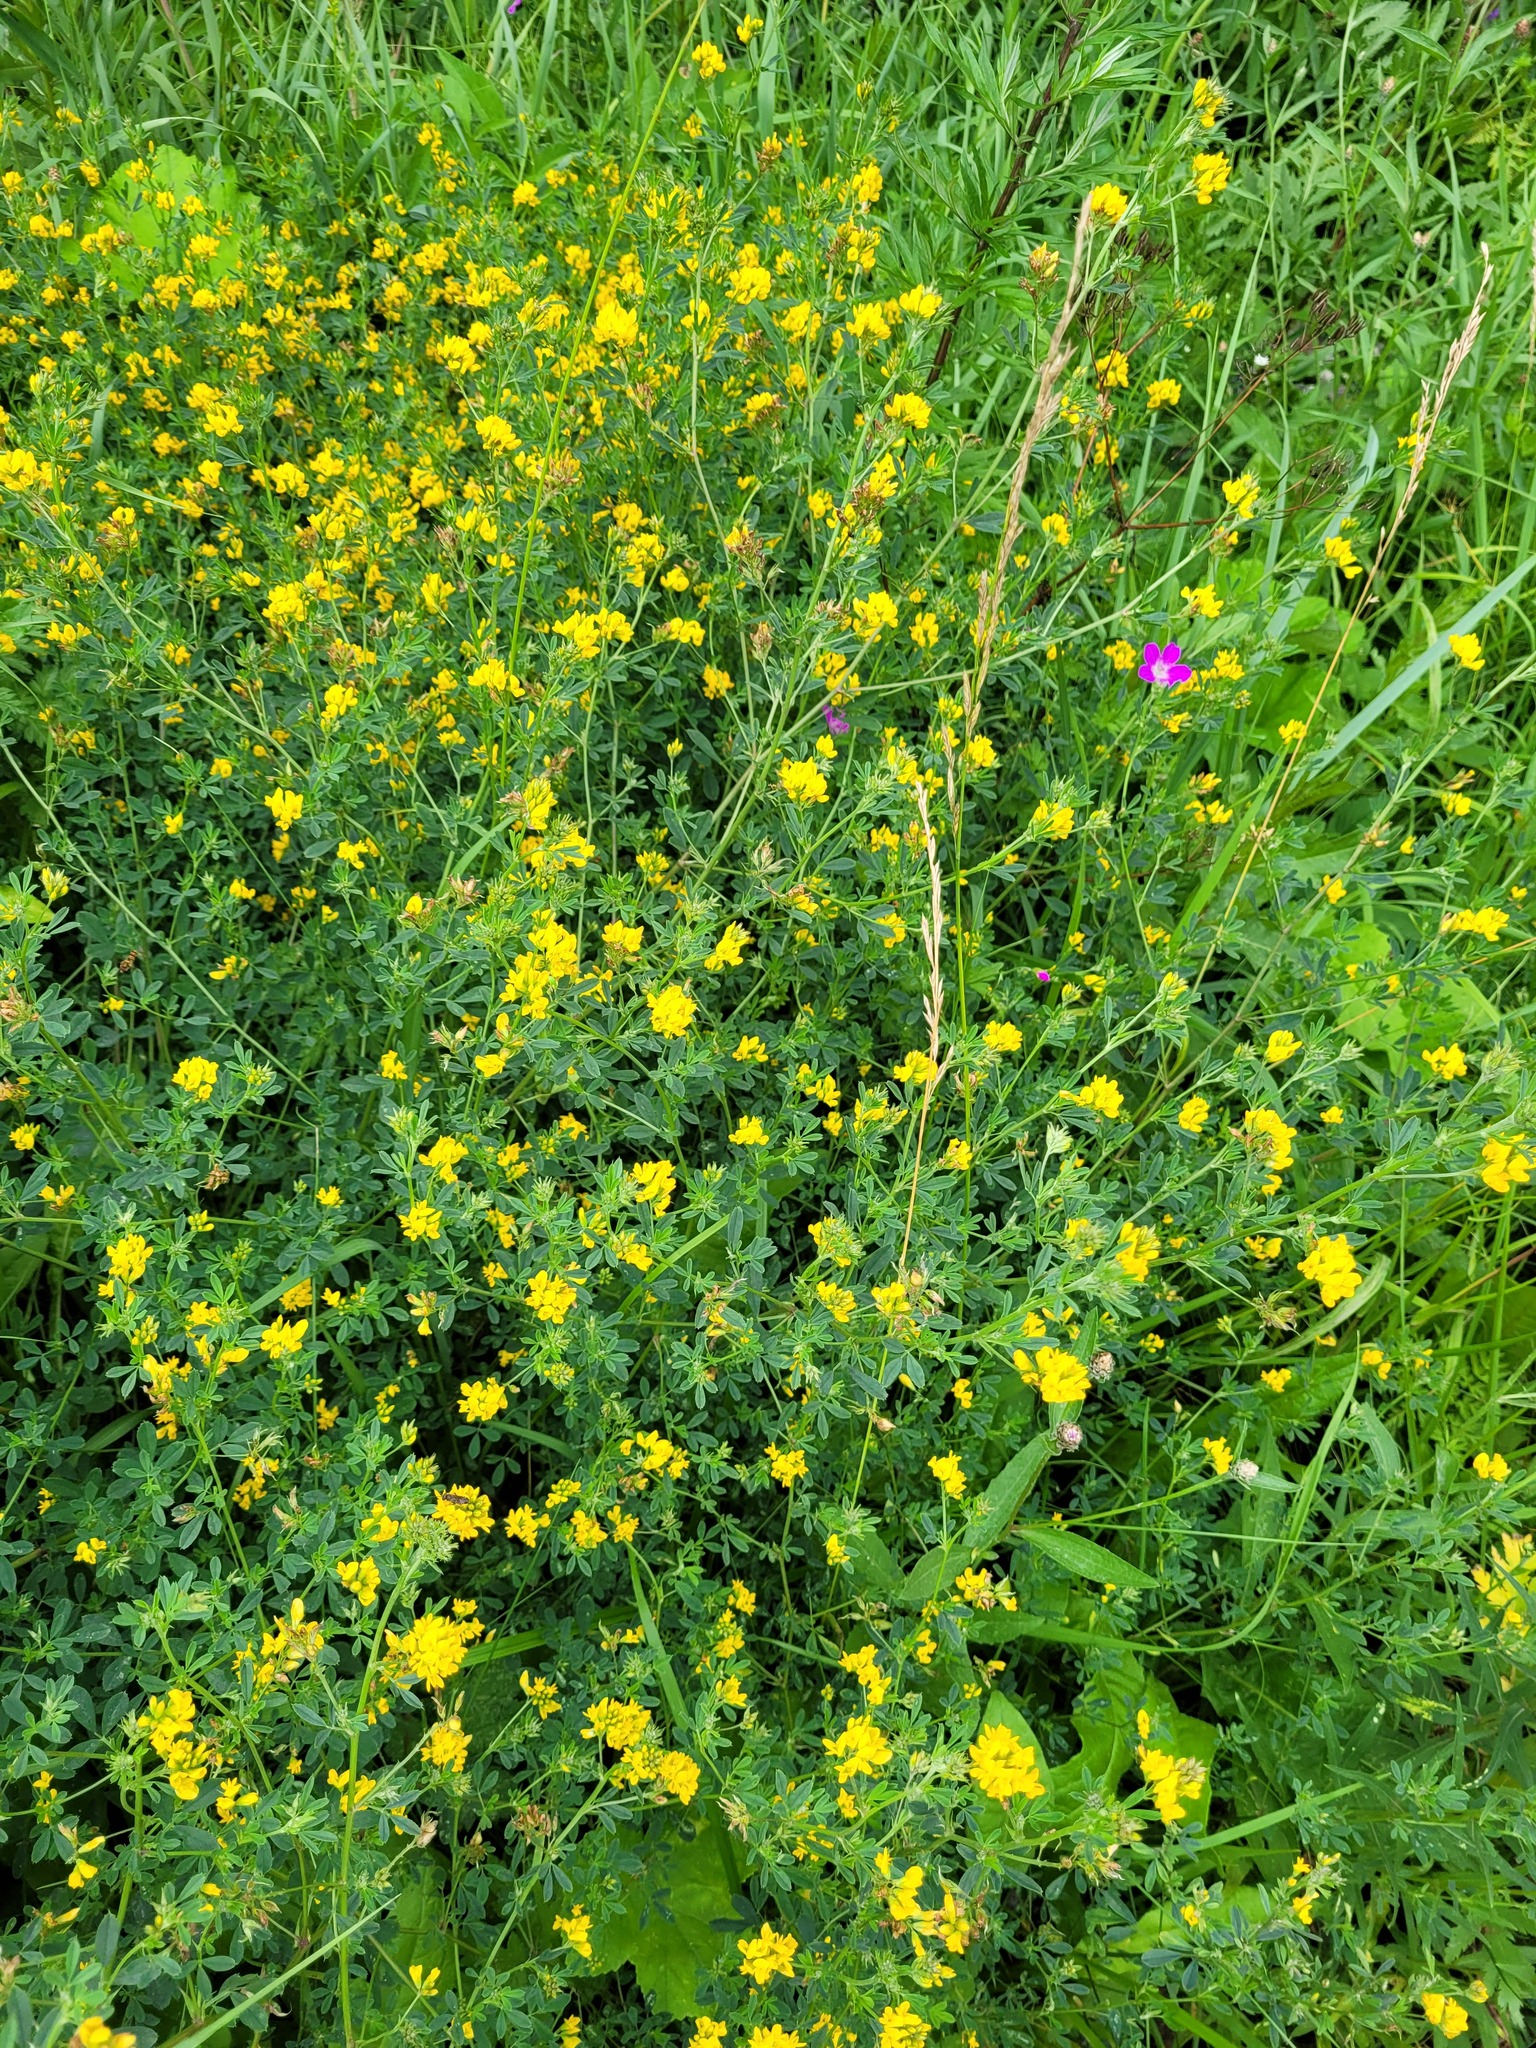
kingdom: Plantae
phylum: Tracheophyta
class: Magnoliopsida
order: Fabales
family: Fabaceae
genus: Medicago
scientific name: Medicago falcata
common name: Sickle medick
